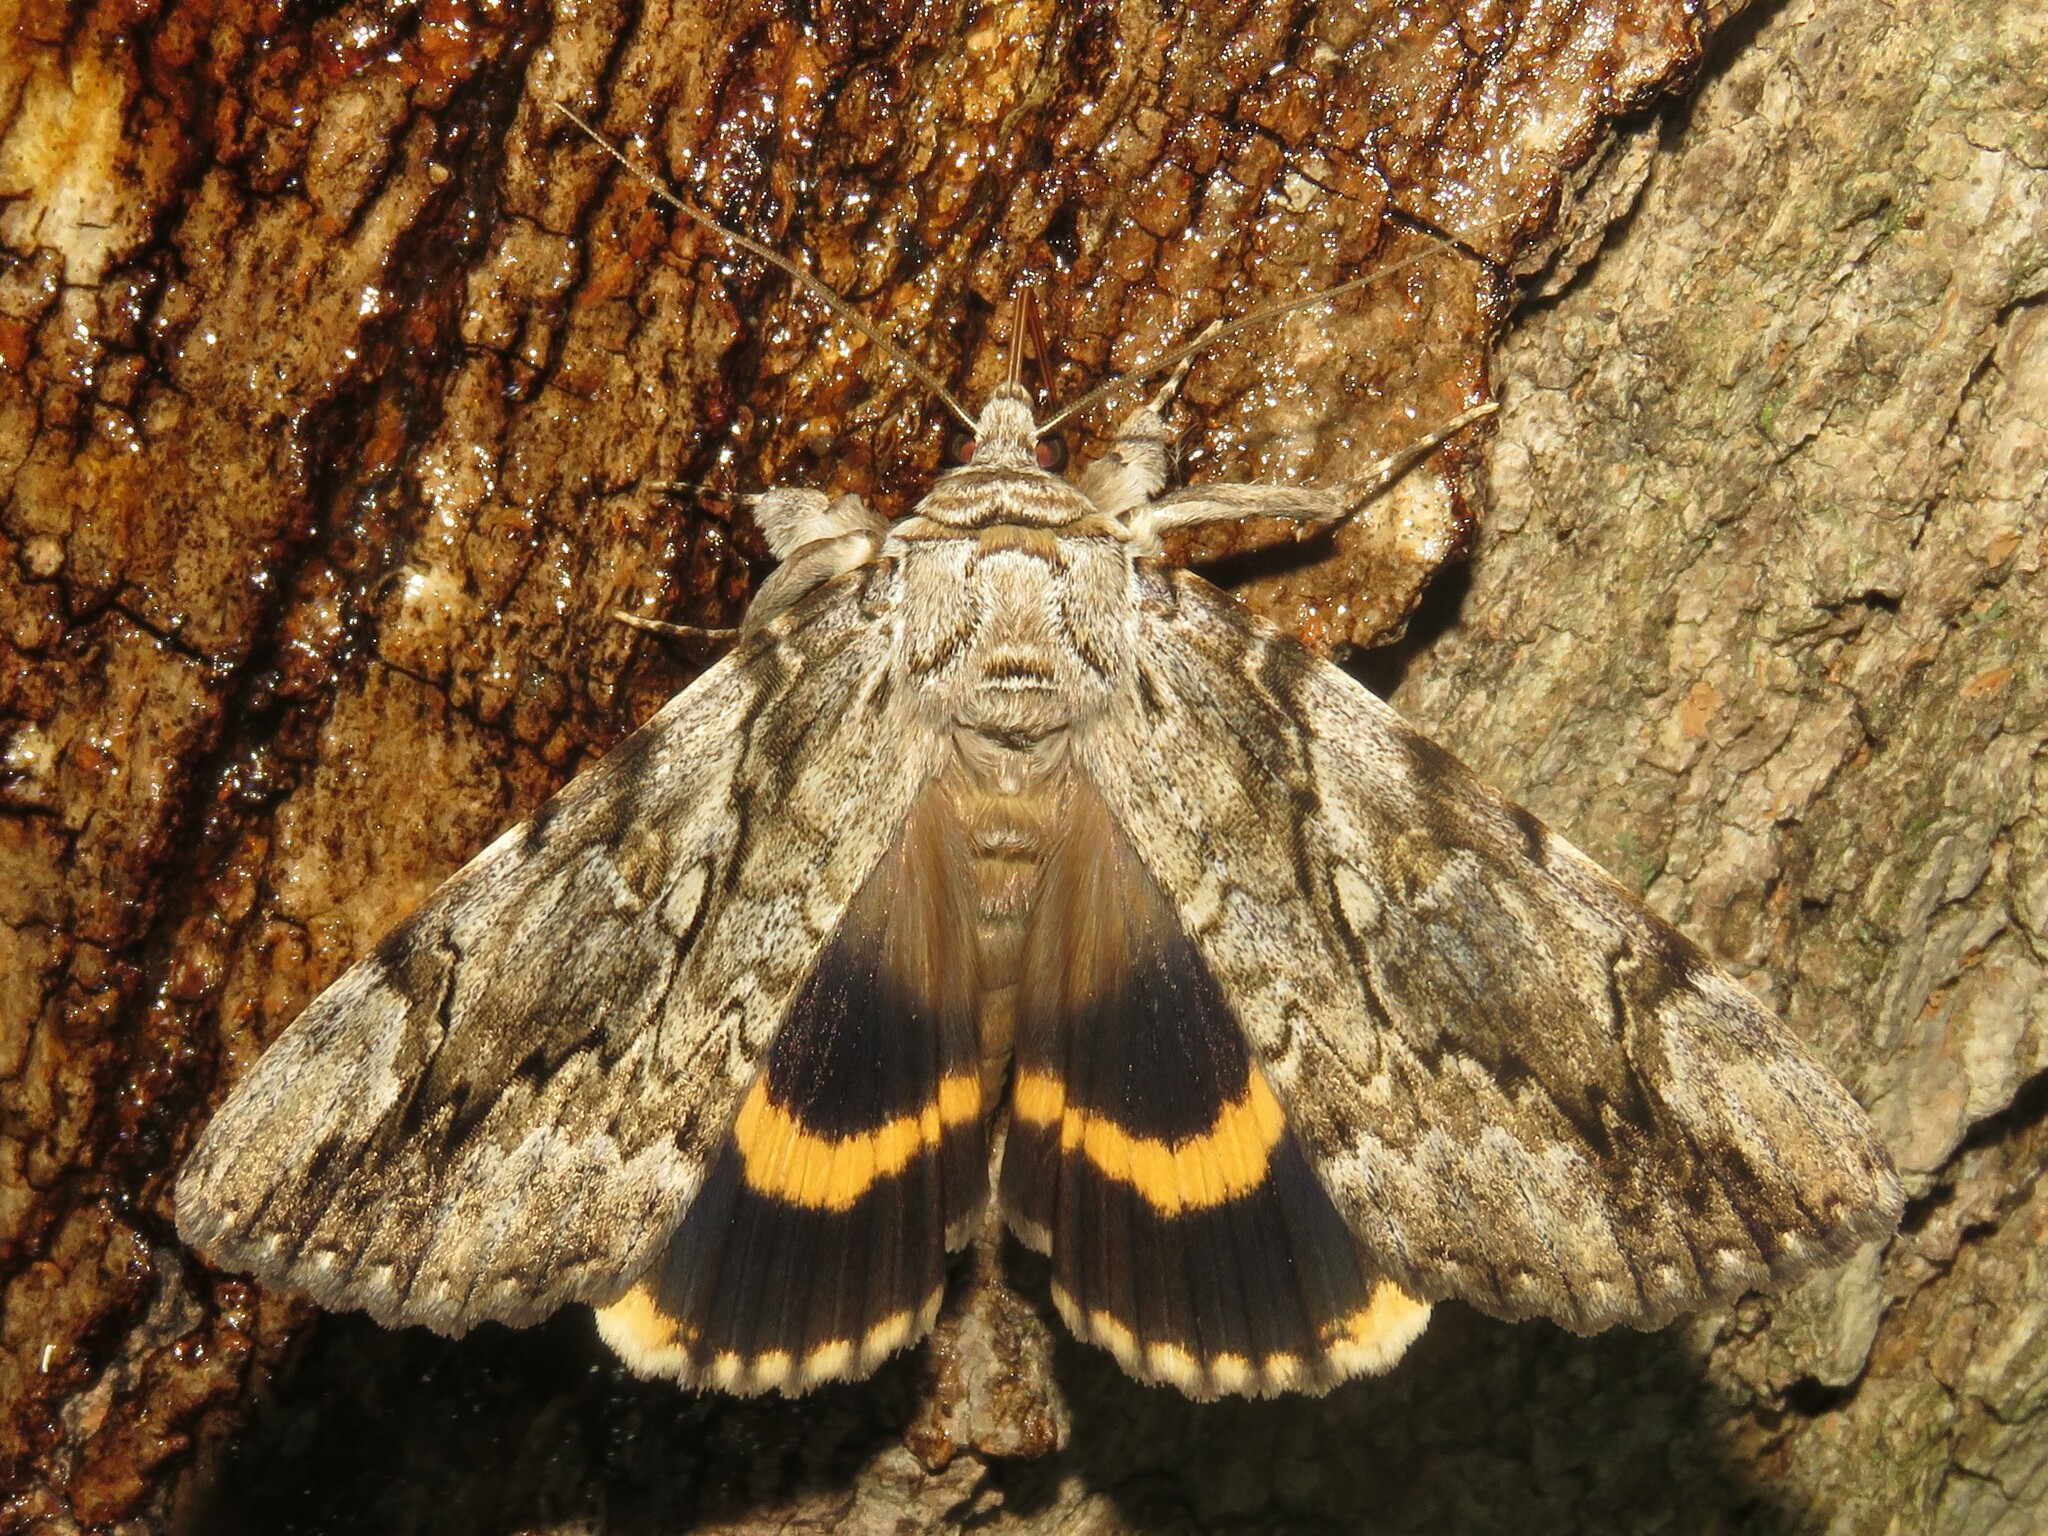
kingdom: Animalia
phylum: Arthropoda
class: Insecta
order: Lepidoptera
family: Erebidae
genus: Catocala
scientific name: Catocala cerogama
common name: Yellow banded underwing
